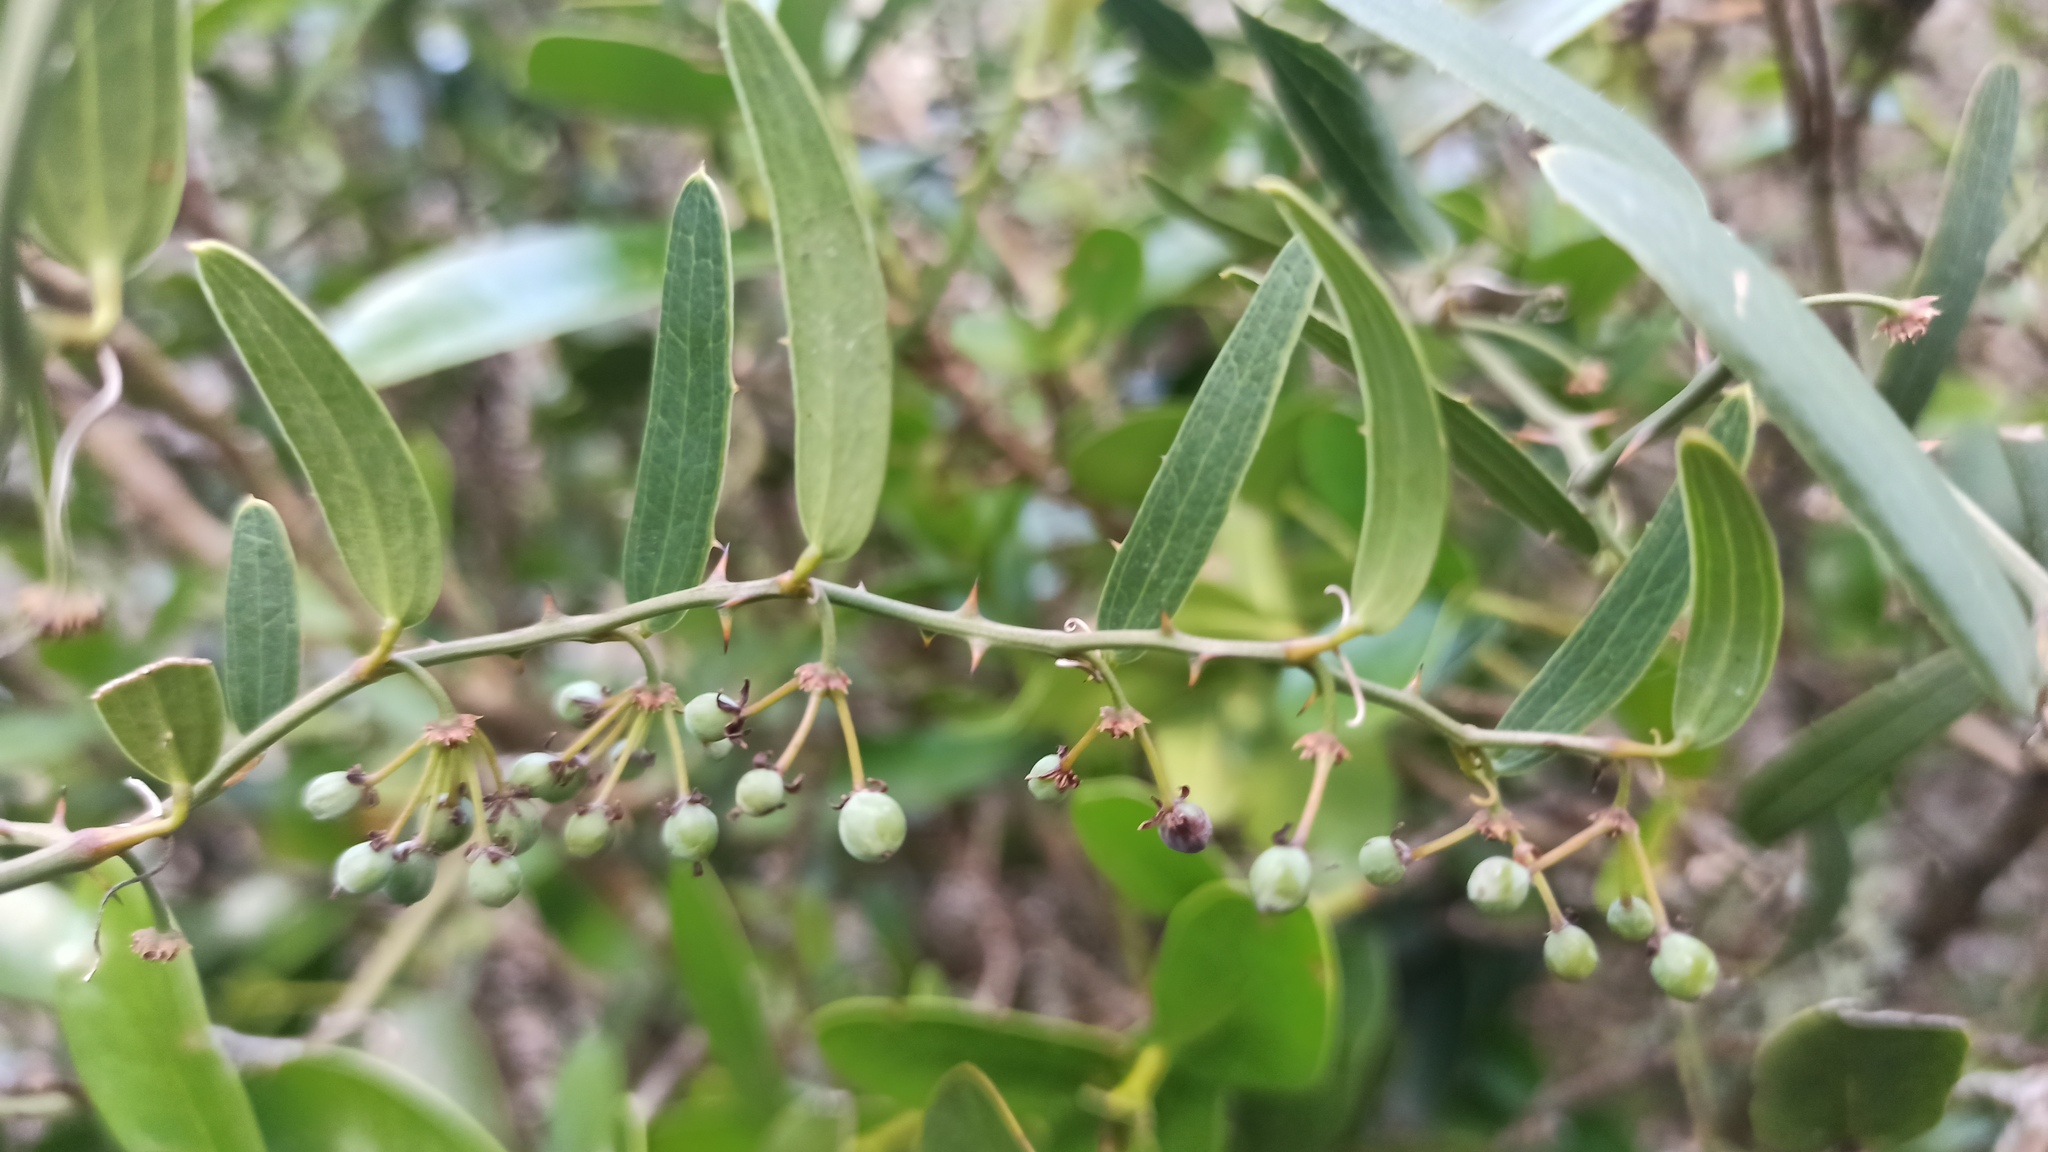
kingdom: Plantae
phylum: Tracheophyta
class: Liliopsida
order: Liliales
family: Smilacaceae
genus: Smilax
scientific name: Smilax campestris
